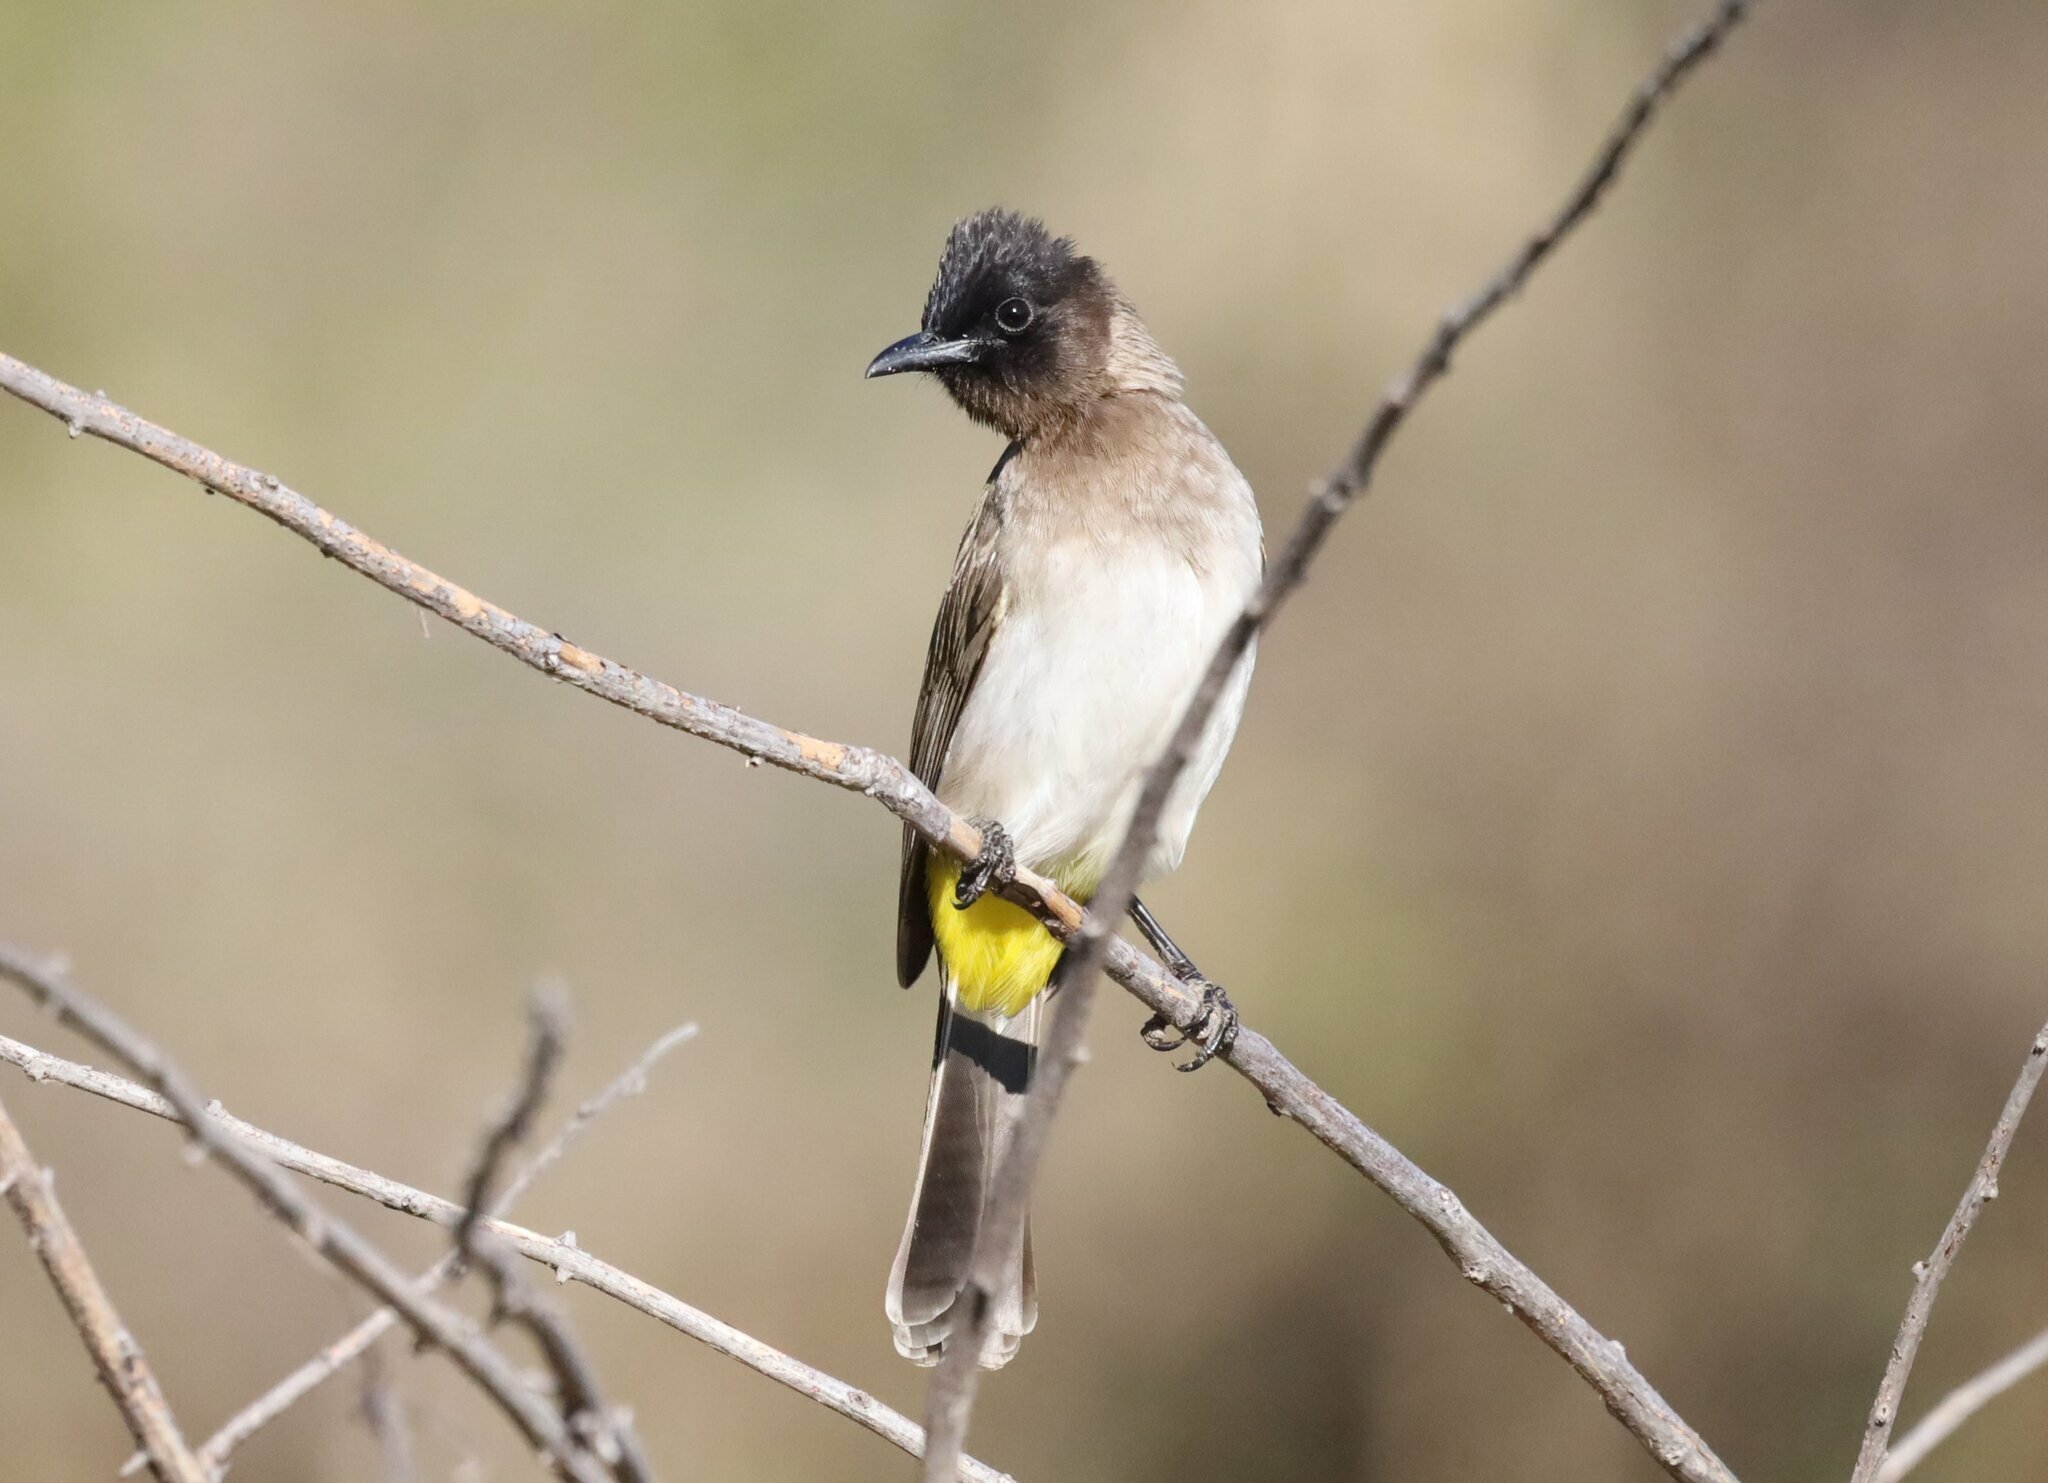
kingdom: Animalia
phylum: Chordata
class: Aves
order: Passeriformes
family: Pycnonotidae
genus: Pycnonotus
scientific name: Pycnonotus barbatus
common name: Common bulbul
